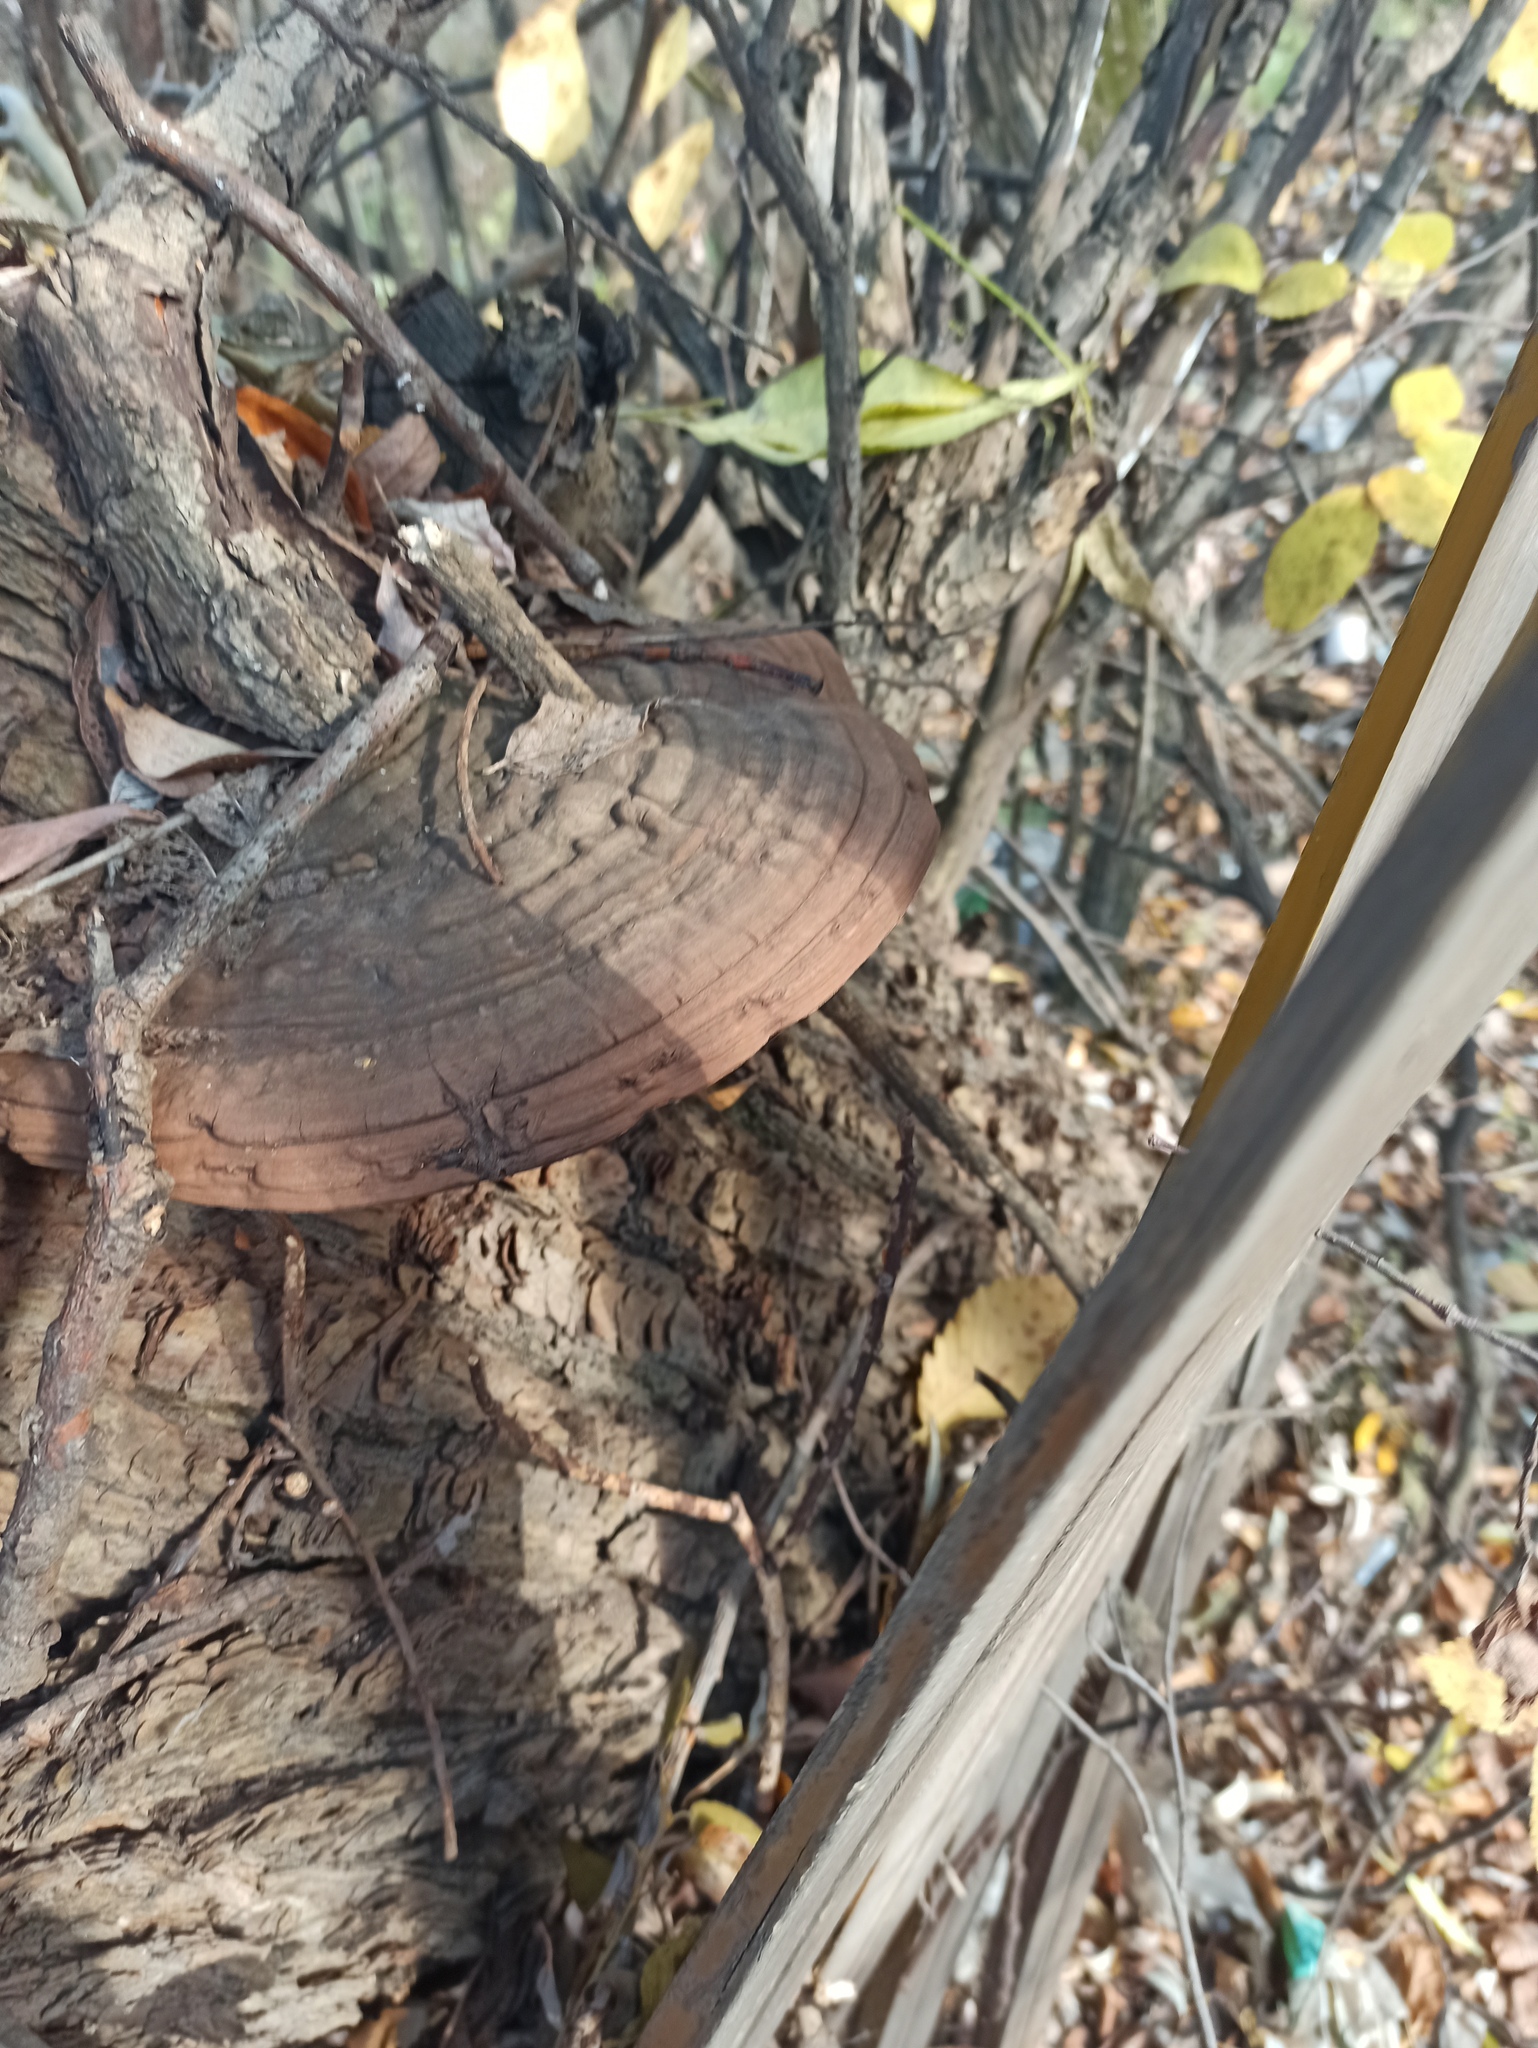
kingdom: Fungi
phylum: Basidiomycota
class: Agaricomycetes
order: Polyporales
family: Polyporaceae
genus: Ganoderma
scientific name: Ganoderma applanatum
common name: Artist's bracket
